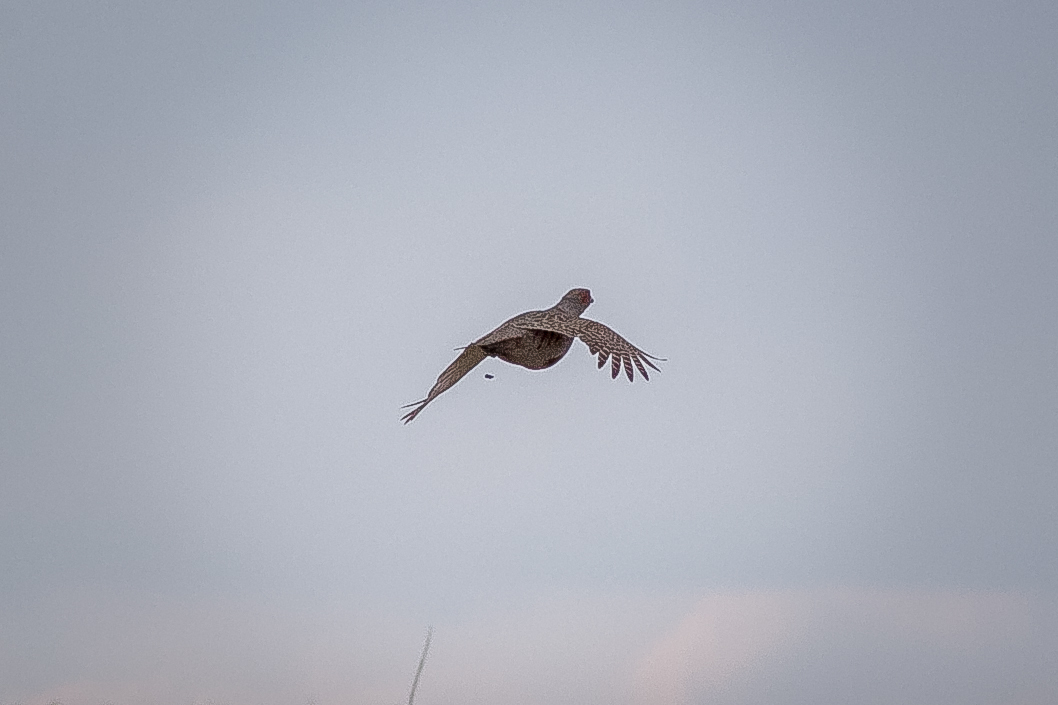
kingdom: Animalia
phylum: Chordata
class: Aves
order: Galliformes
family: Phasianidae
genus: Perdix
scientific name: Perdix perdix
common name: Grey partridge
